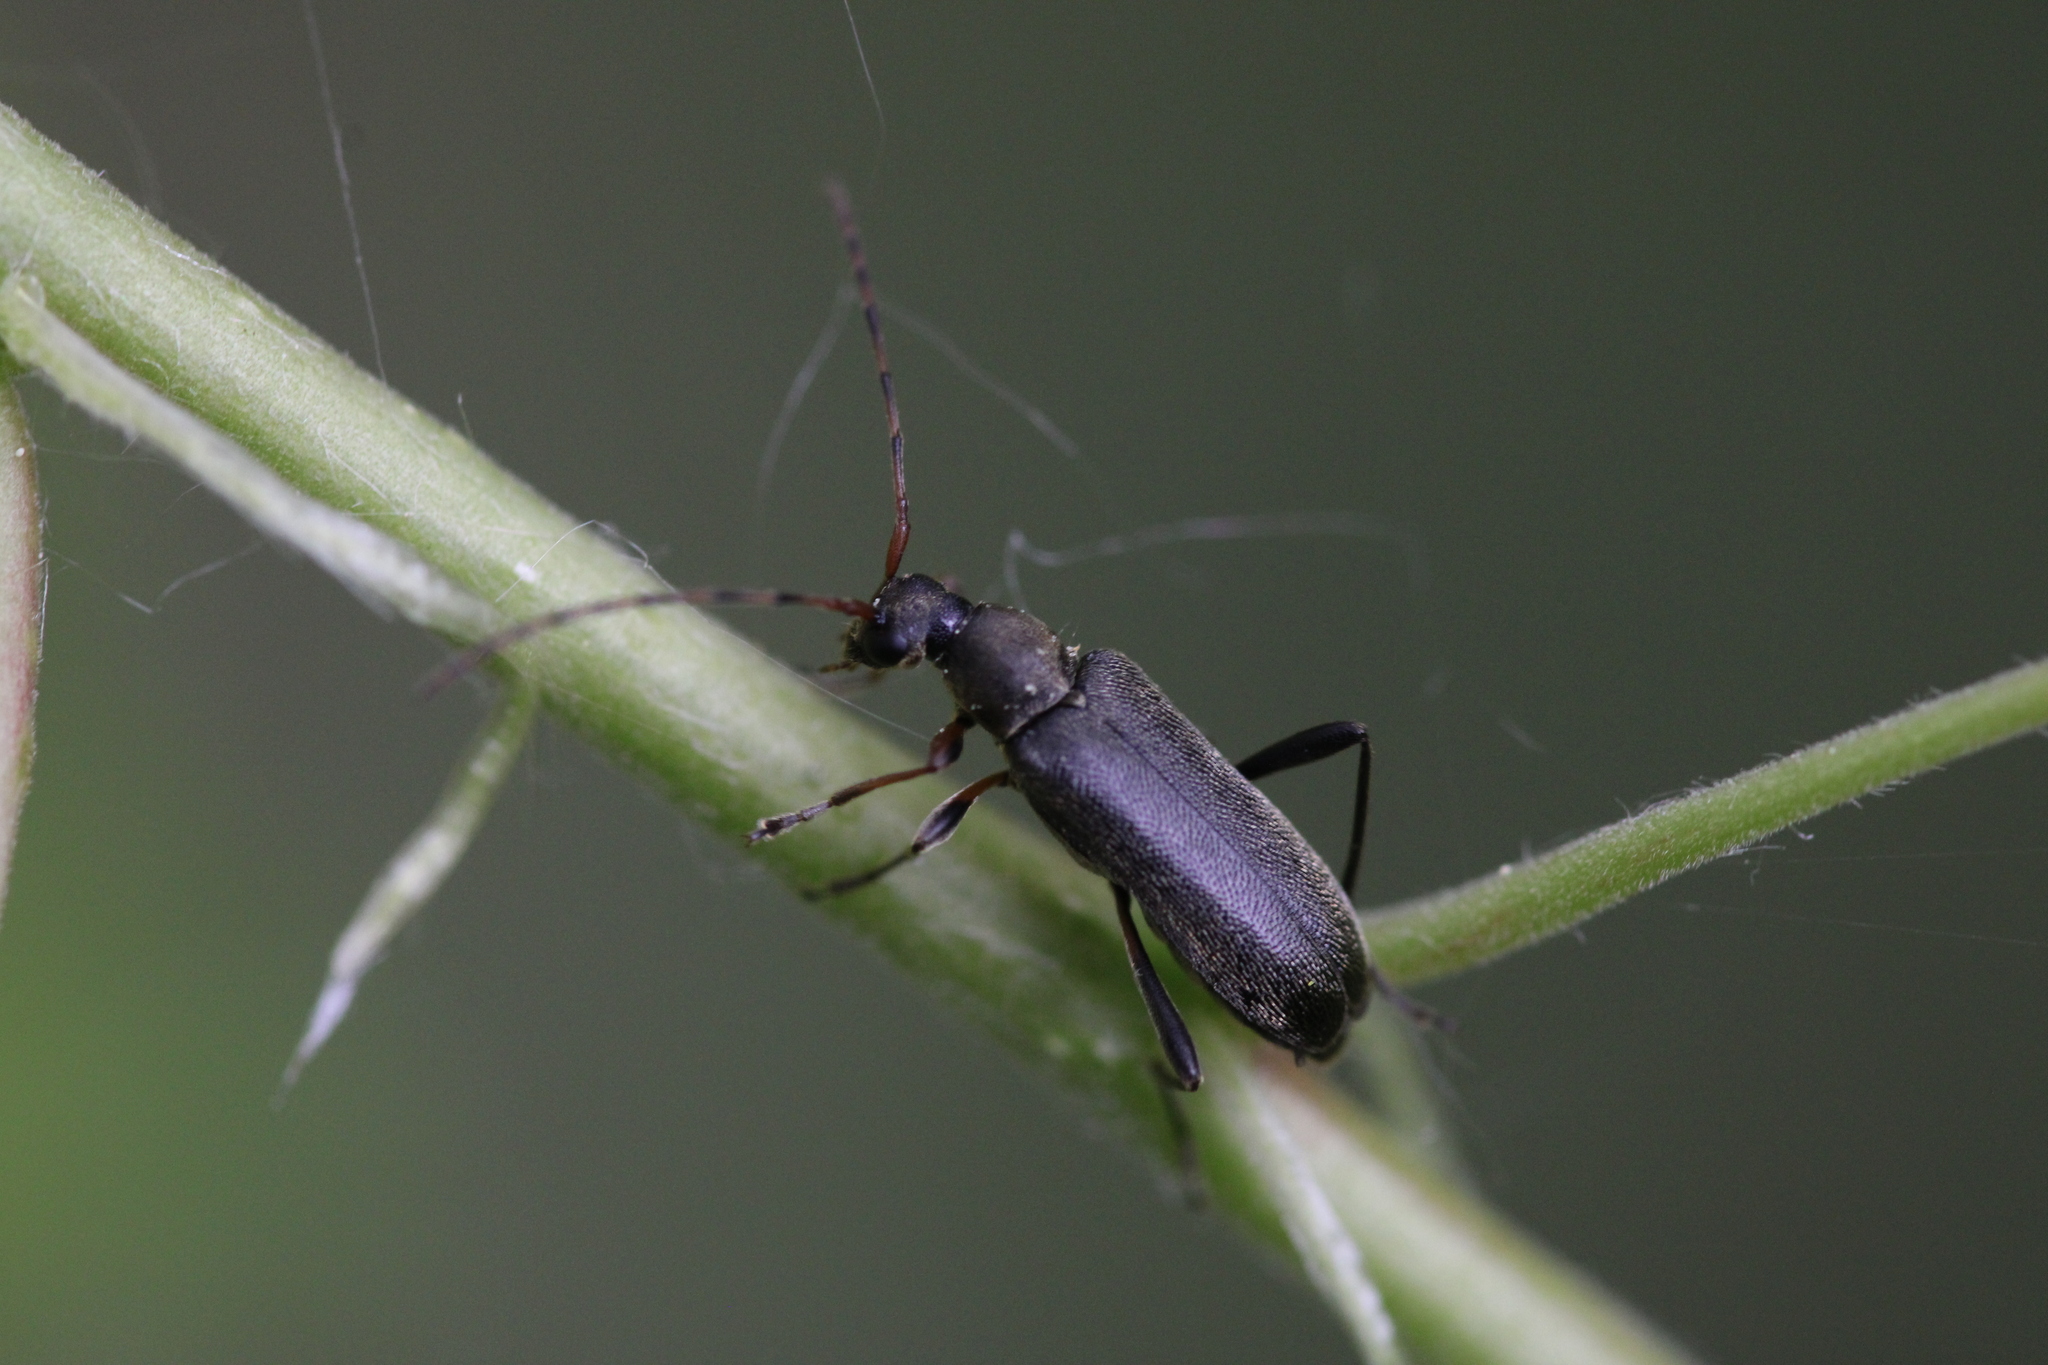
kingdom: Animalia
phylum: Arthropoda
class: Insecta
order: Coleoptera
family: Cerambycidae
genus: Grammoptera
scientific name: Grammoptera ruficornis
